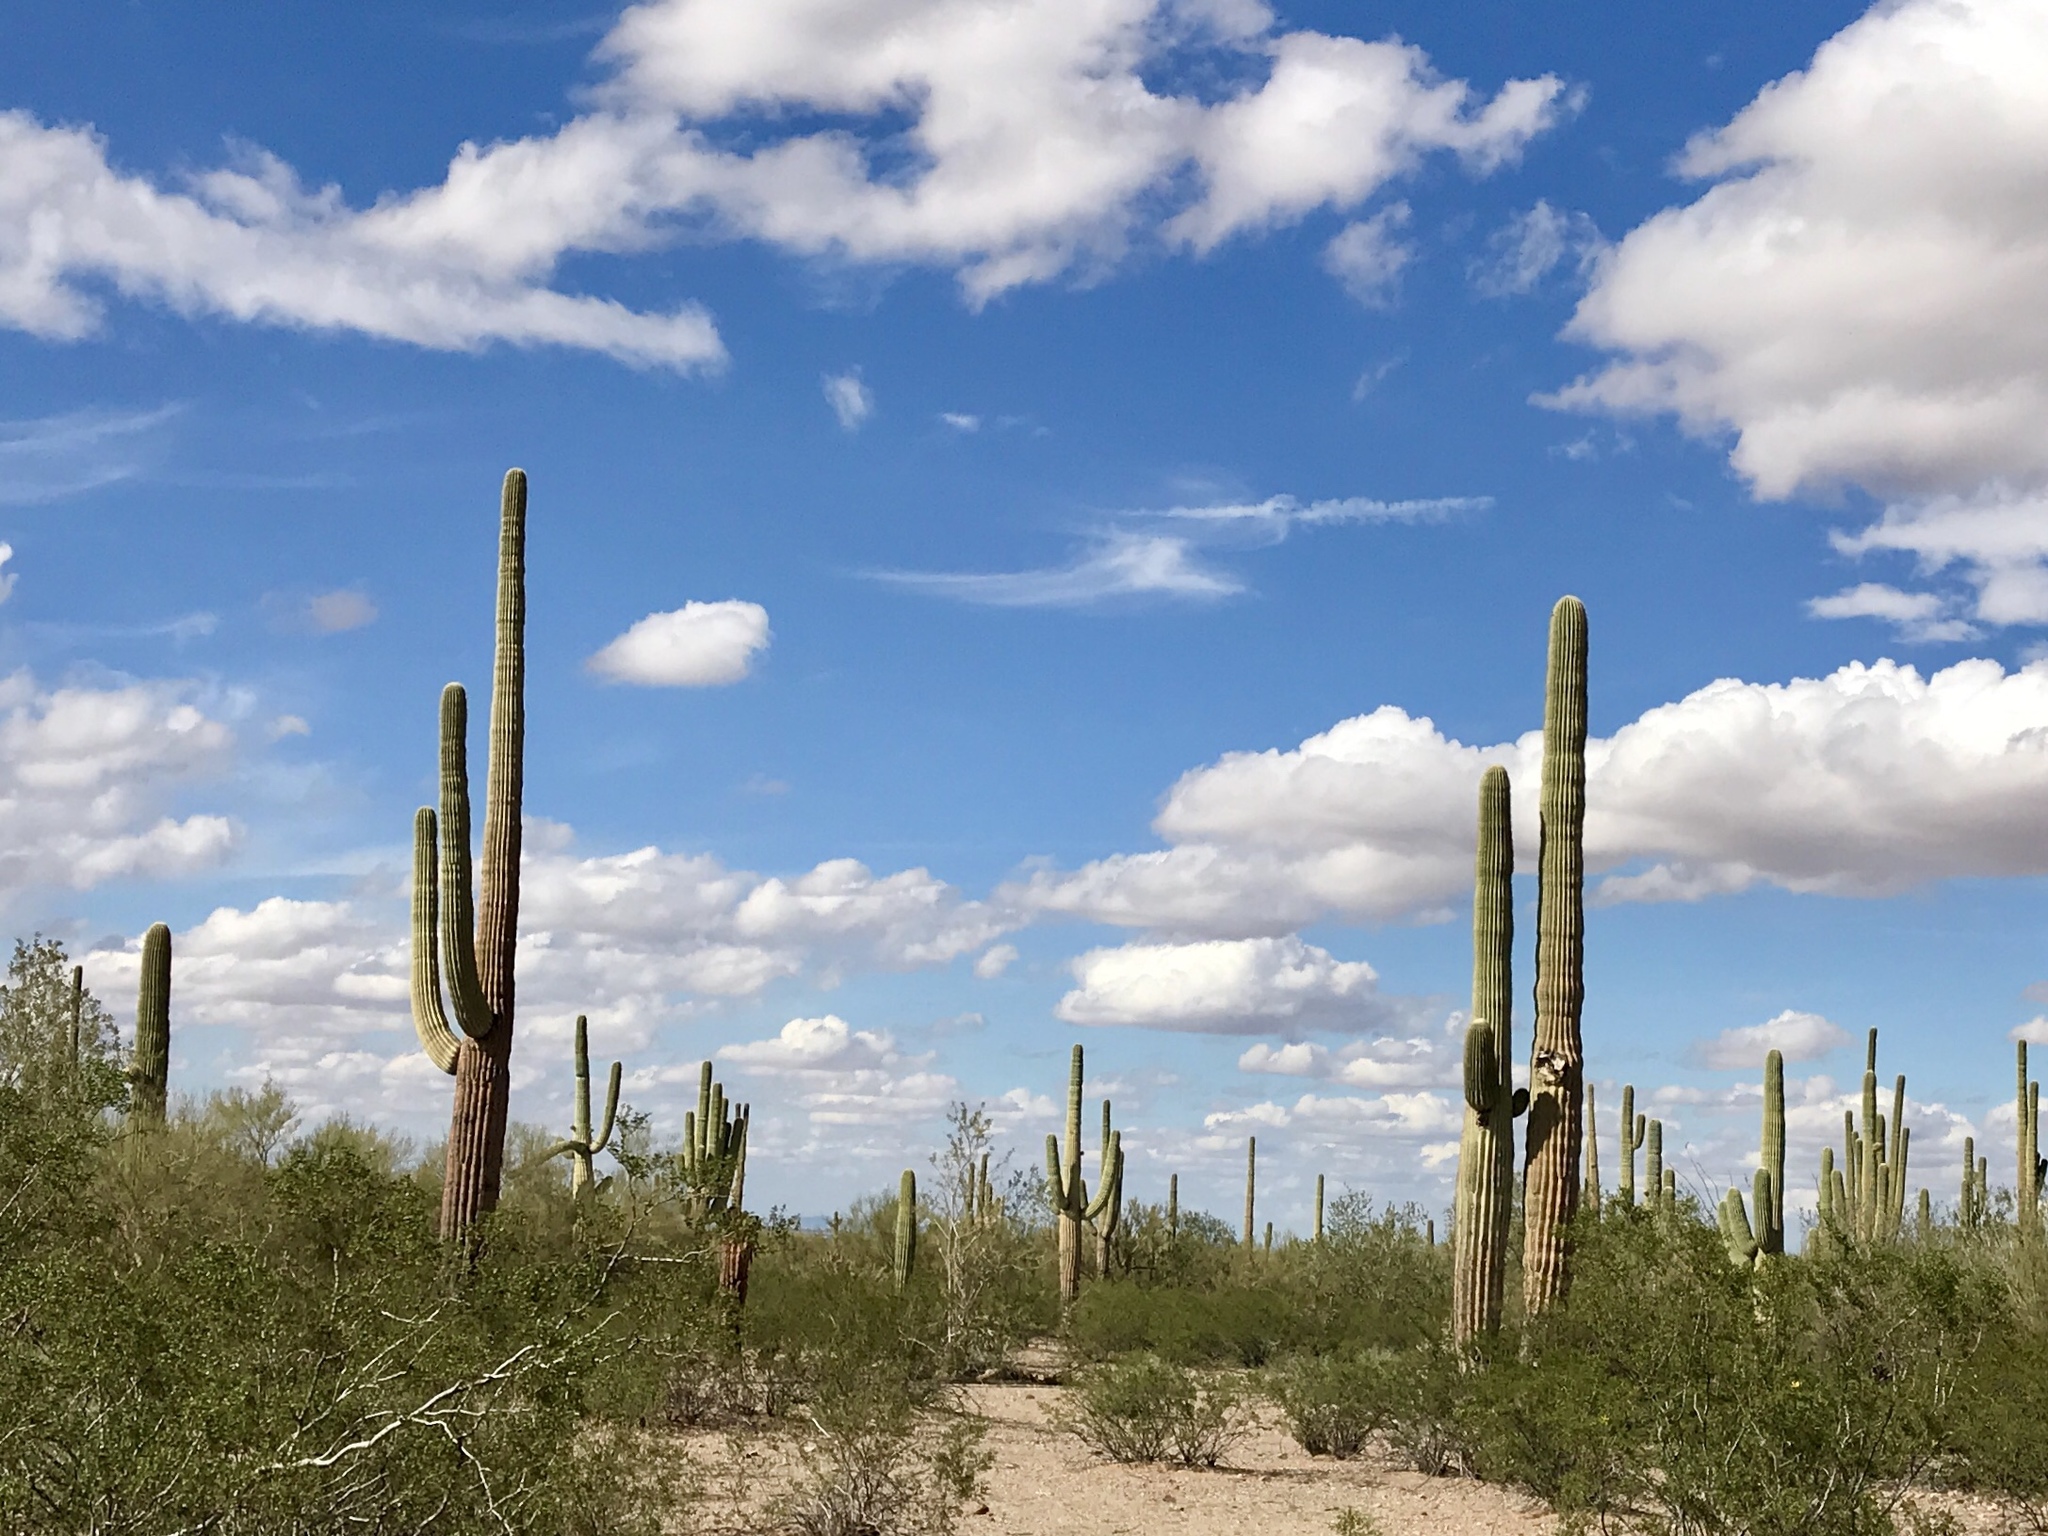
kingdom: Plantae
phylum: Tracheophyta
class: Magnoliopsida
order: Caryophyllales
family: Cactaceae
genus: Carnegiea
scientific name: Carnegiea gigantea
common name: Saguaro
